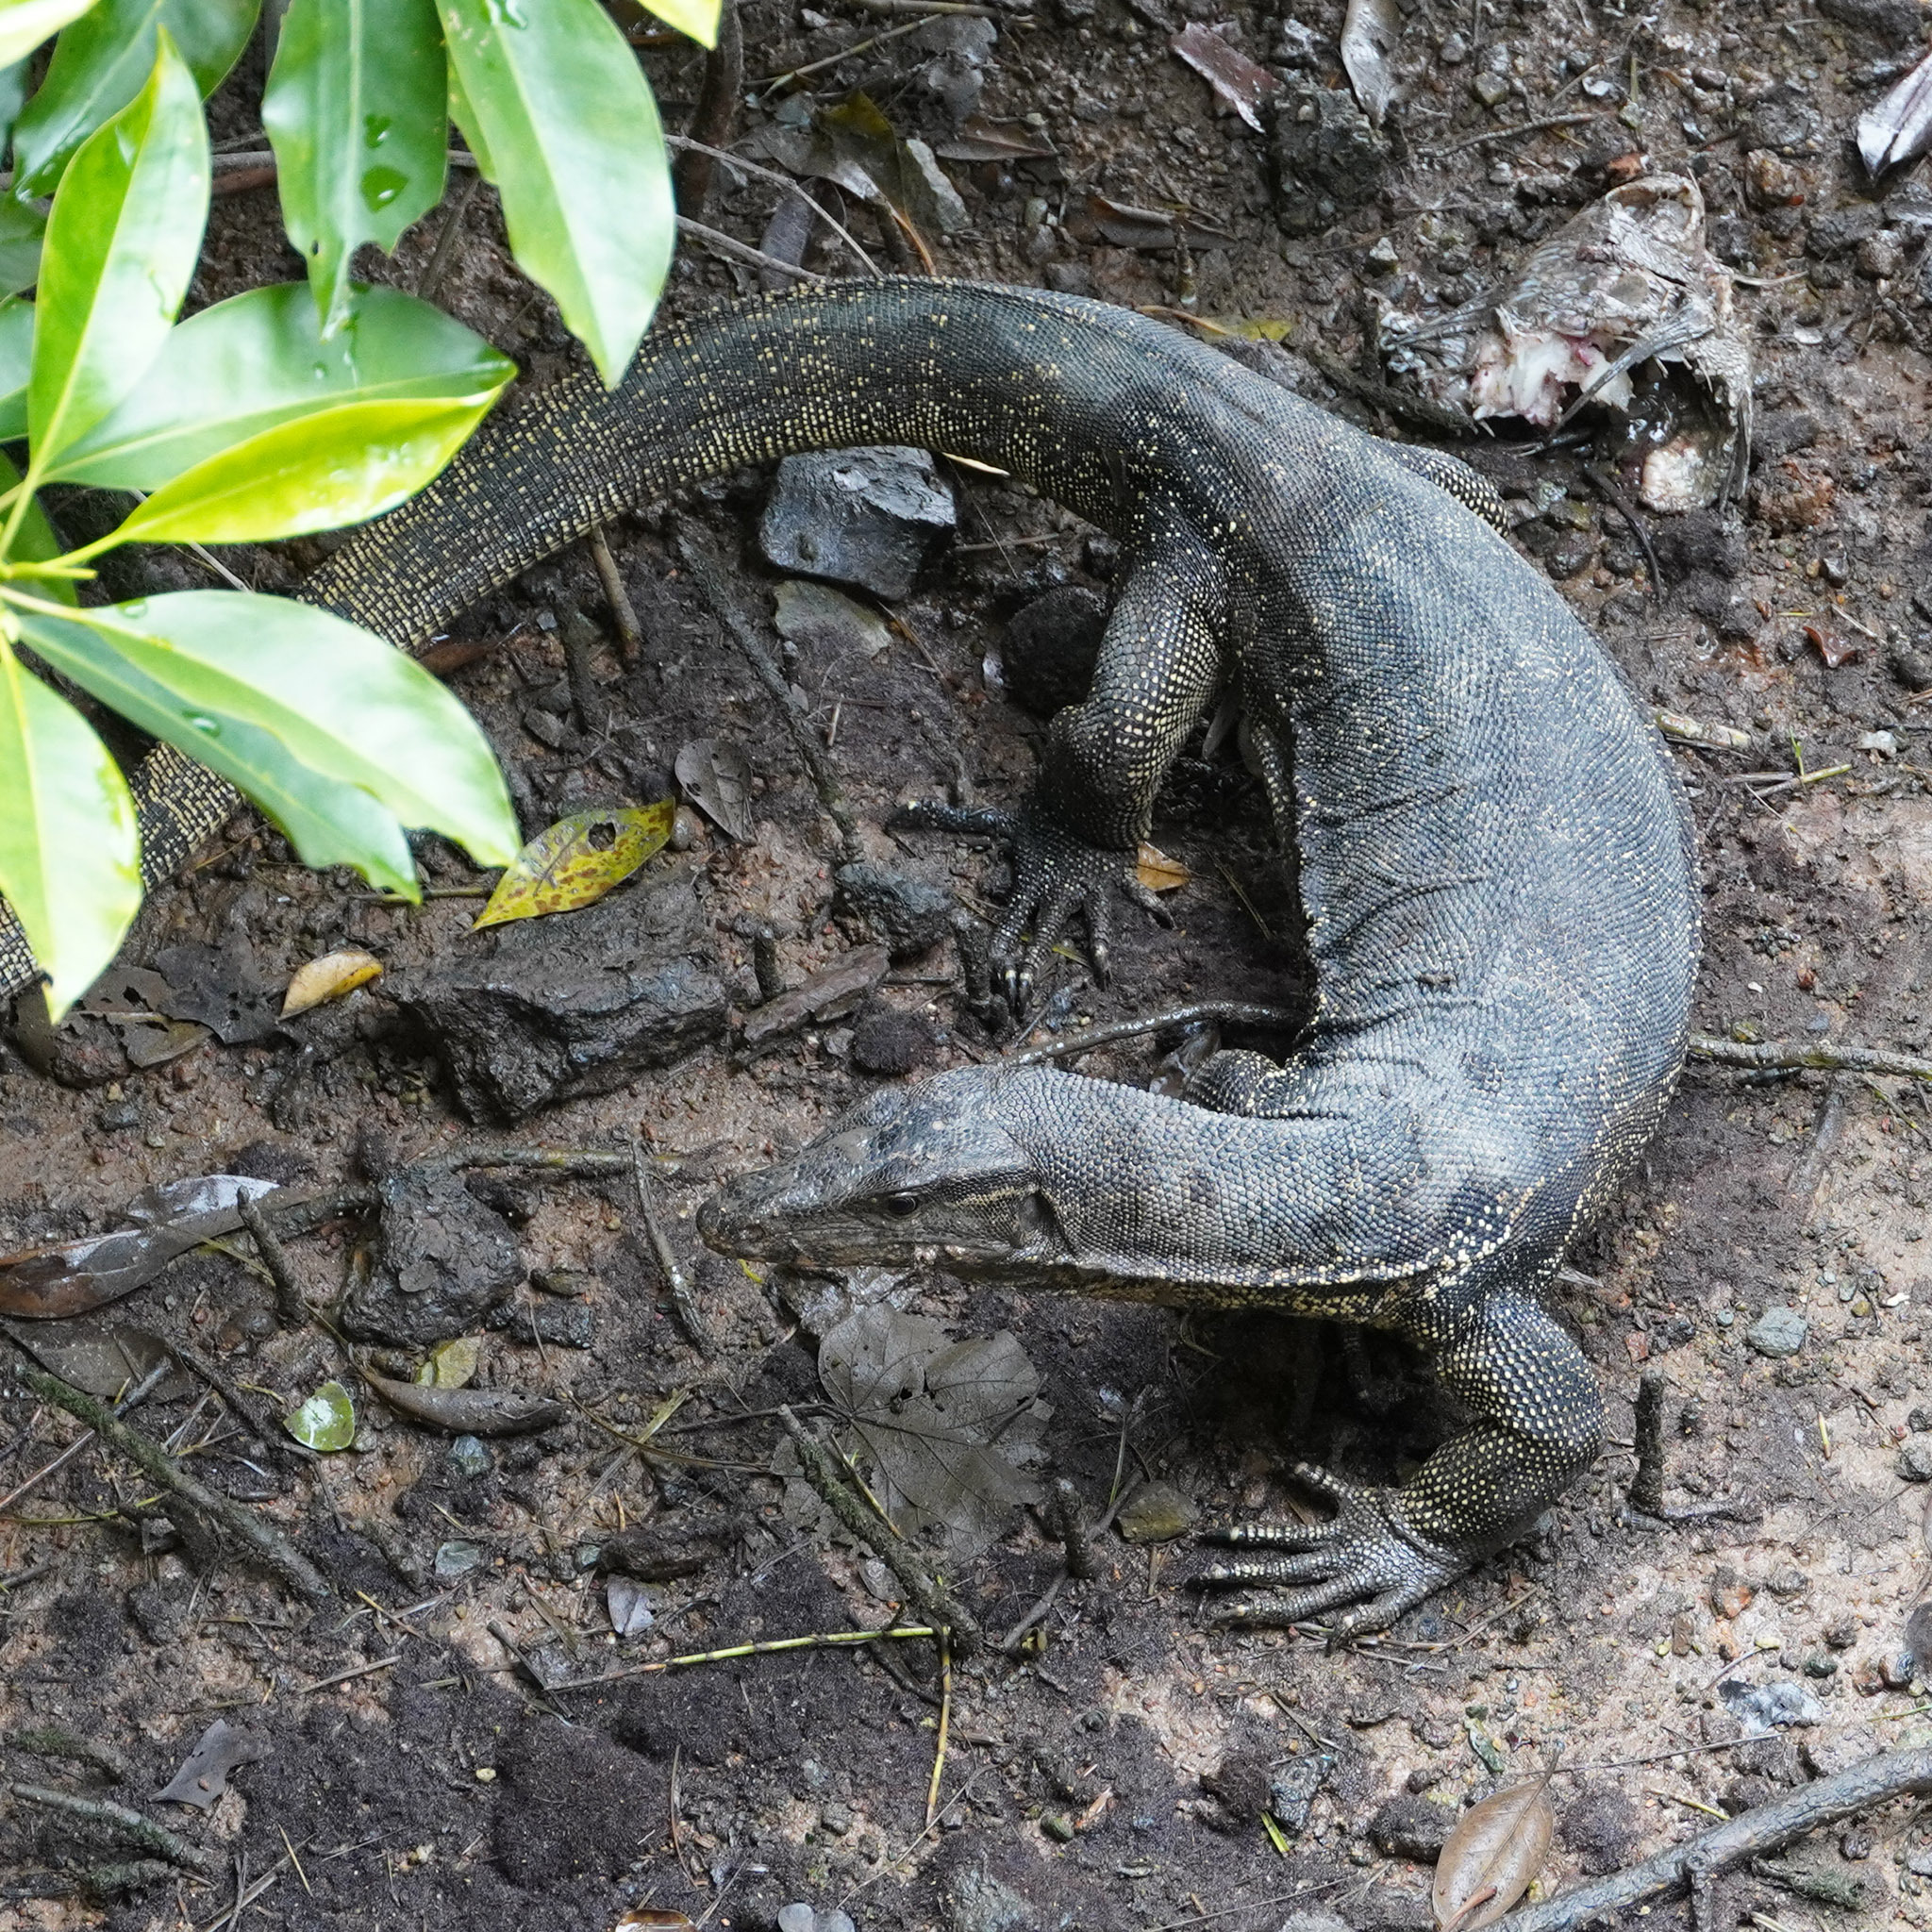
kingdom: Animalia
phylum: Chordata
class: Squamata
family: Varanidae
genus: Varanus
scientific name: Varanus salvator
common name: Common water monitor
